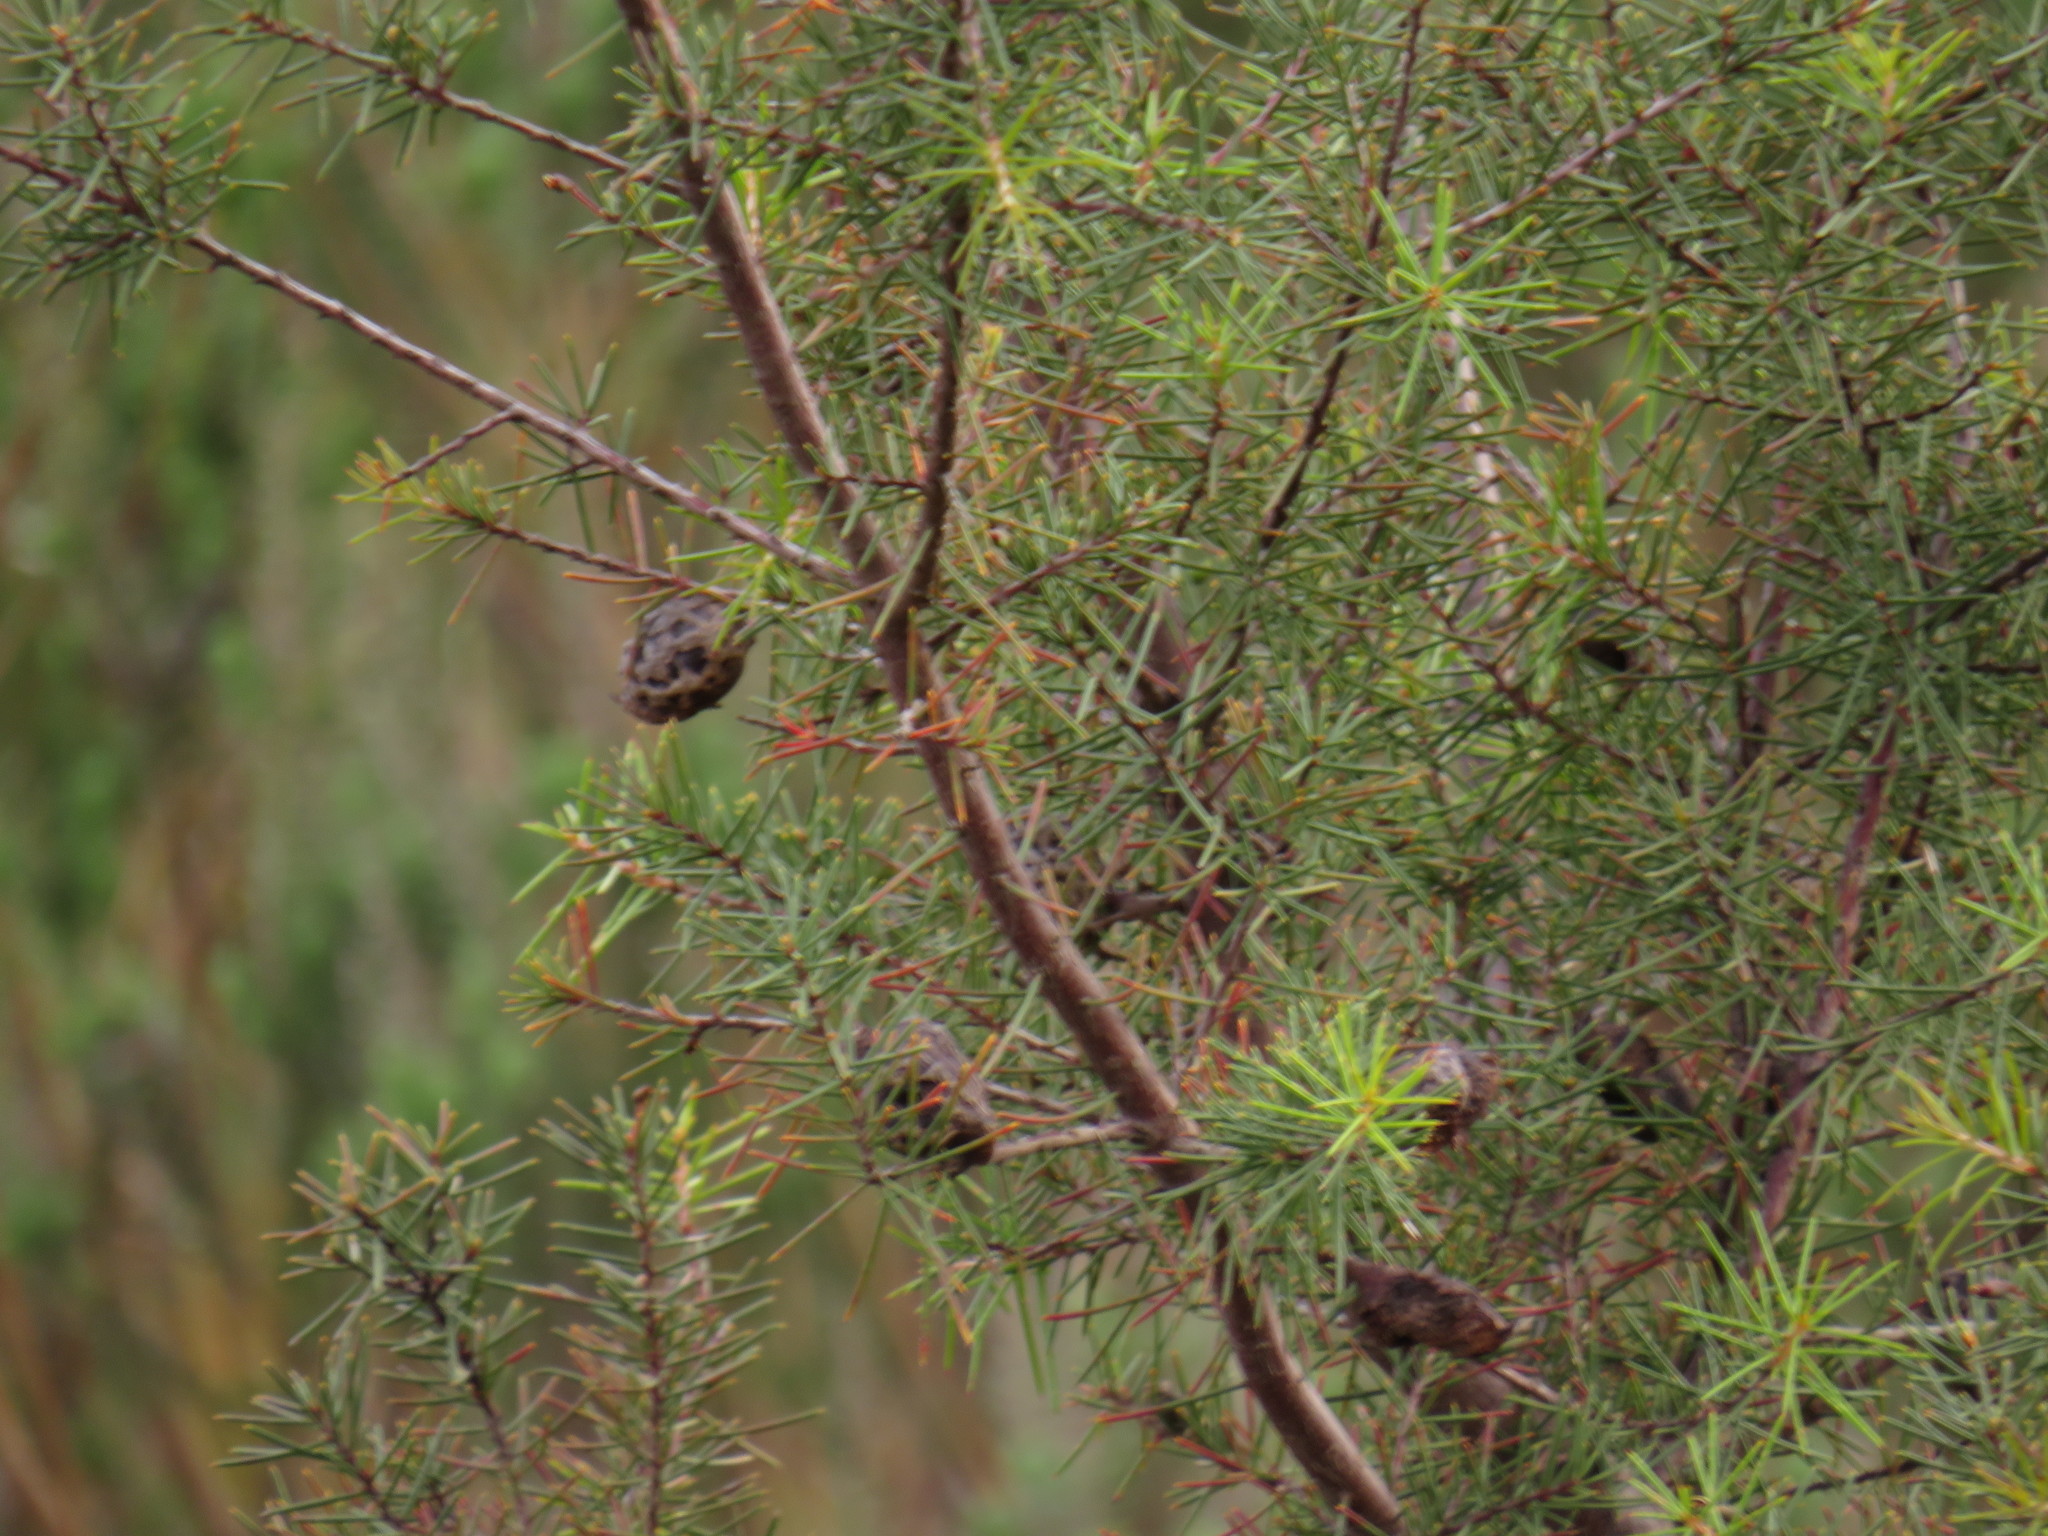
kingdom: Plantae
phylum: Tracheophyta
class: Magnoliopsida
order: Proteales
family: Proteaceae
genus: Hakea
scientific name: Hakea sericea
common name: Needle bush
